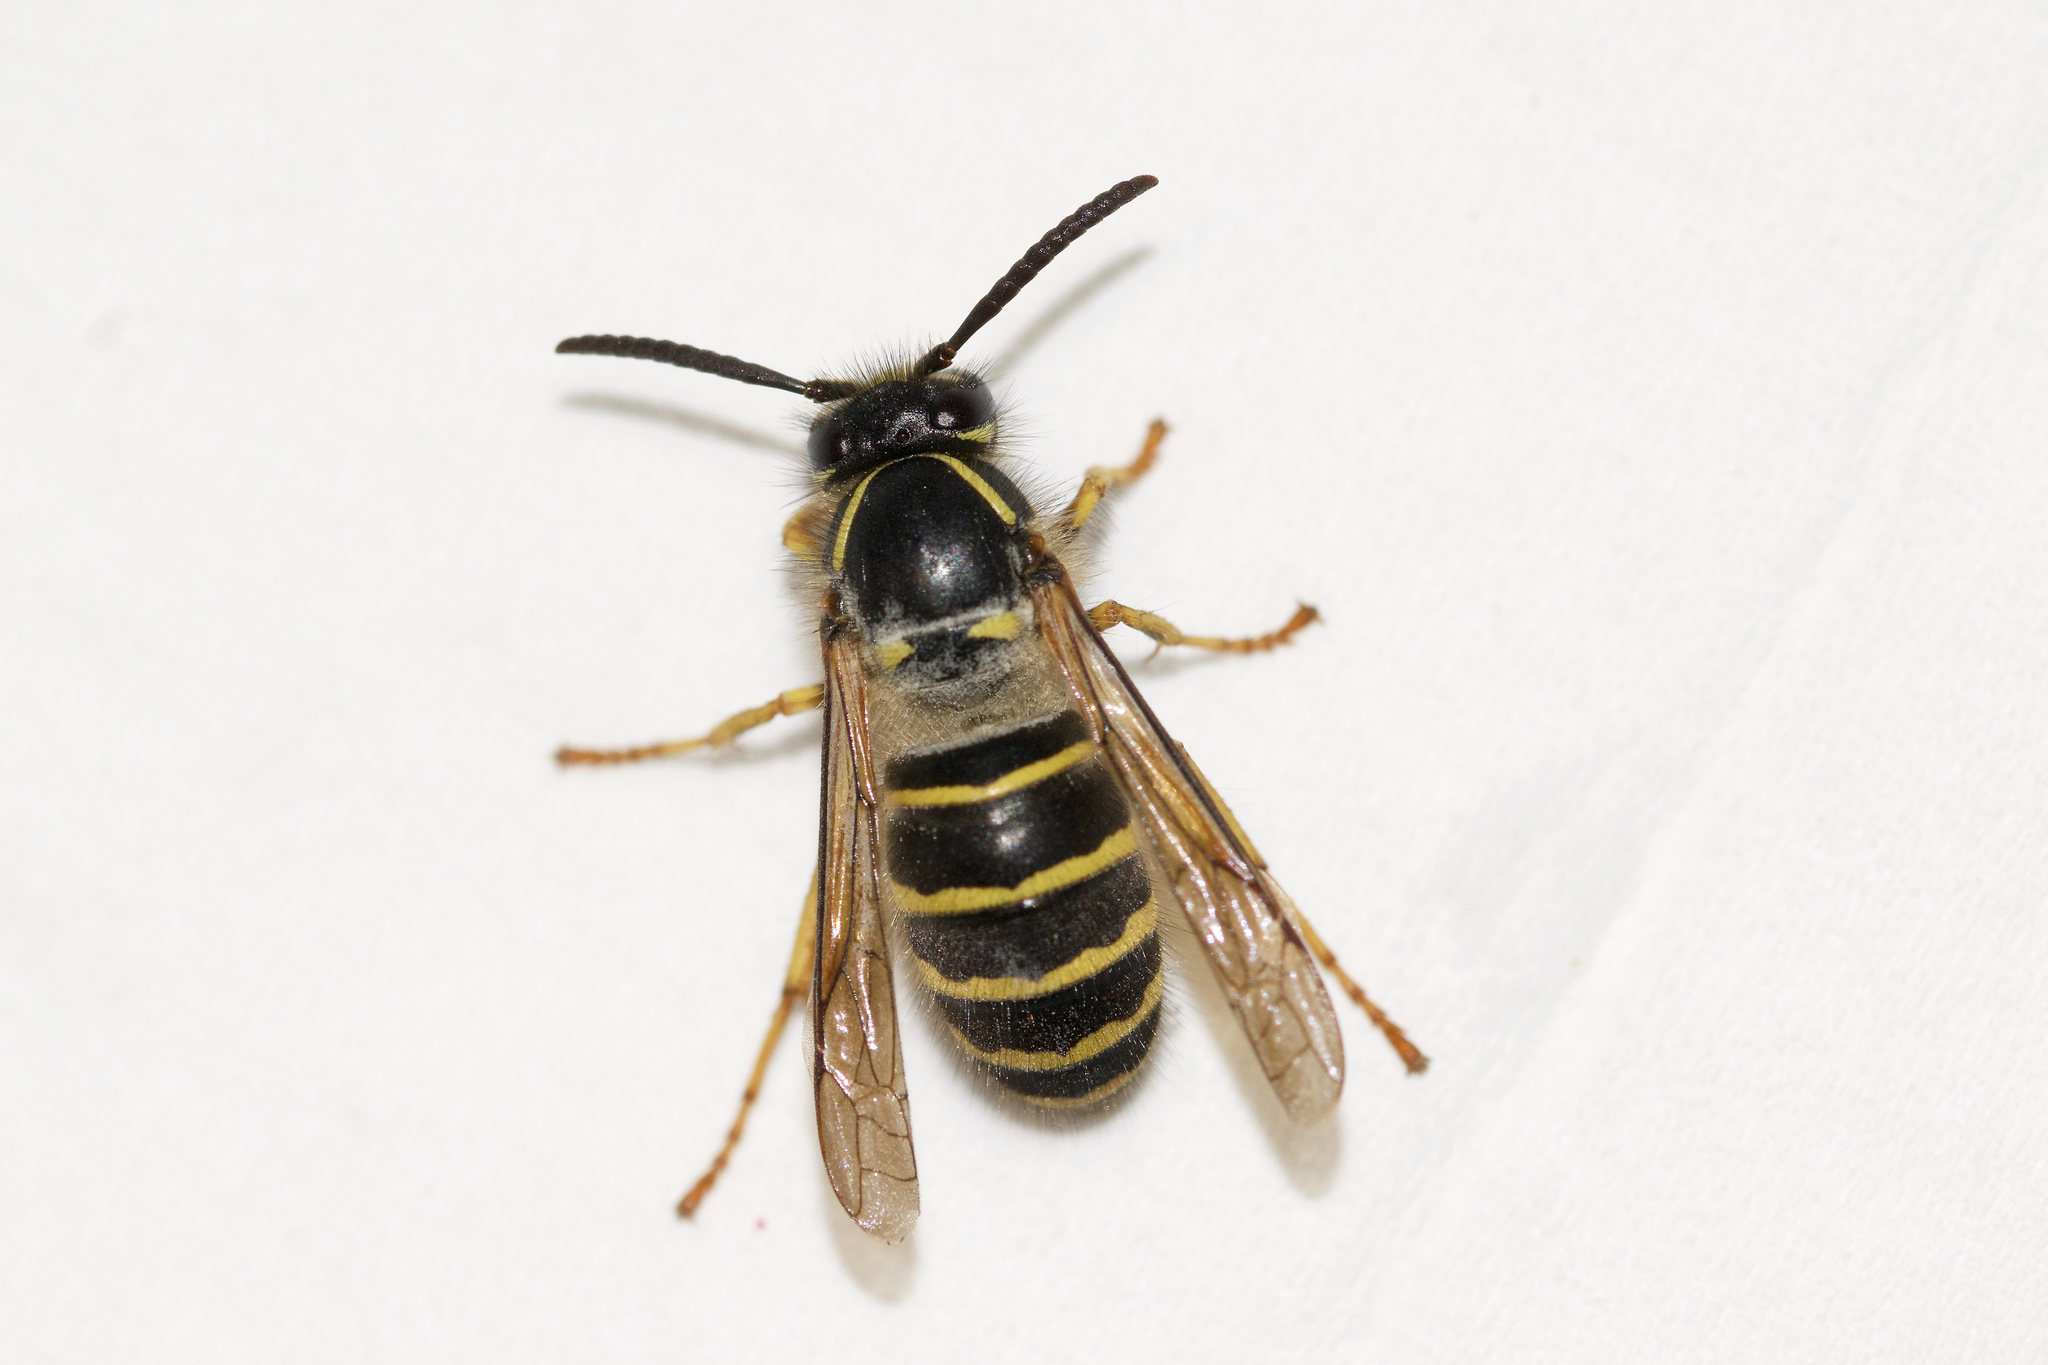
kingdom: Animalia
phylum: Arthropoda
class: Insecta
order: Hymenoptera
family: Vespidae
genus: Dolichovespula
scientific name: Dolichovespula norvegicoides
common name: Northern aerial yellowjacket
